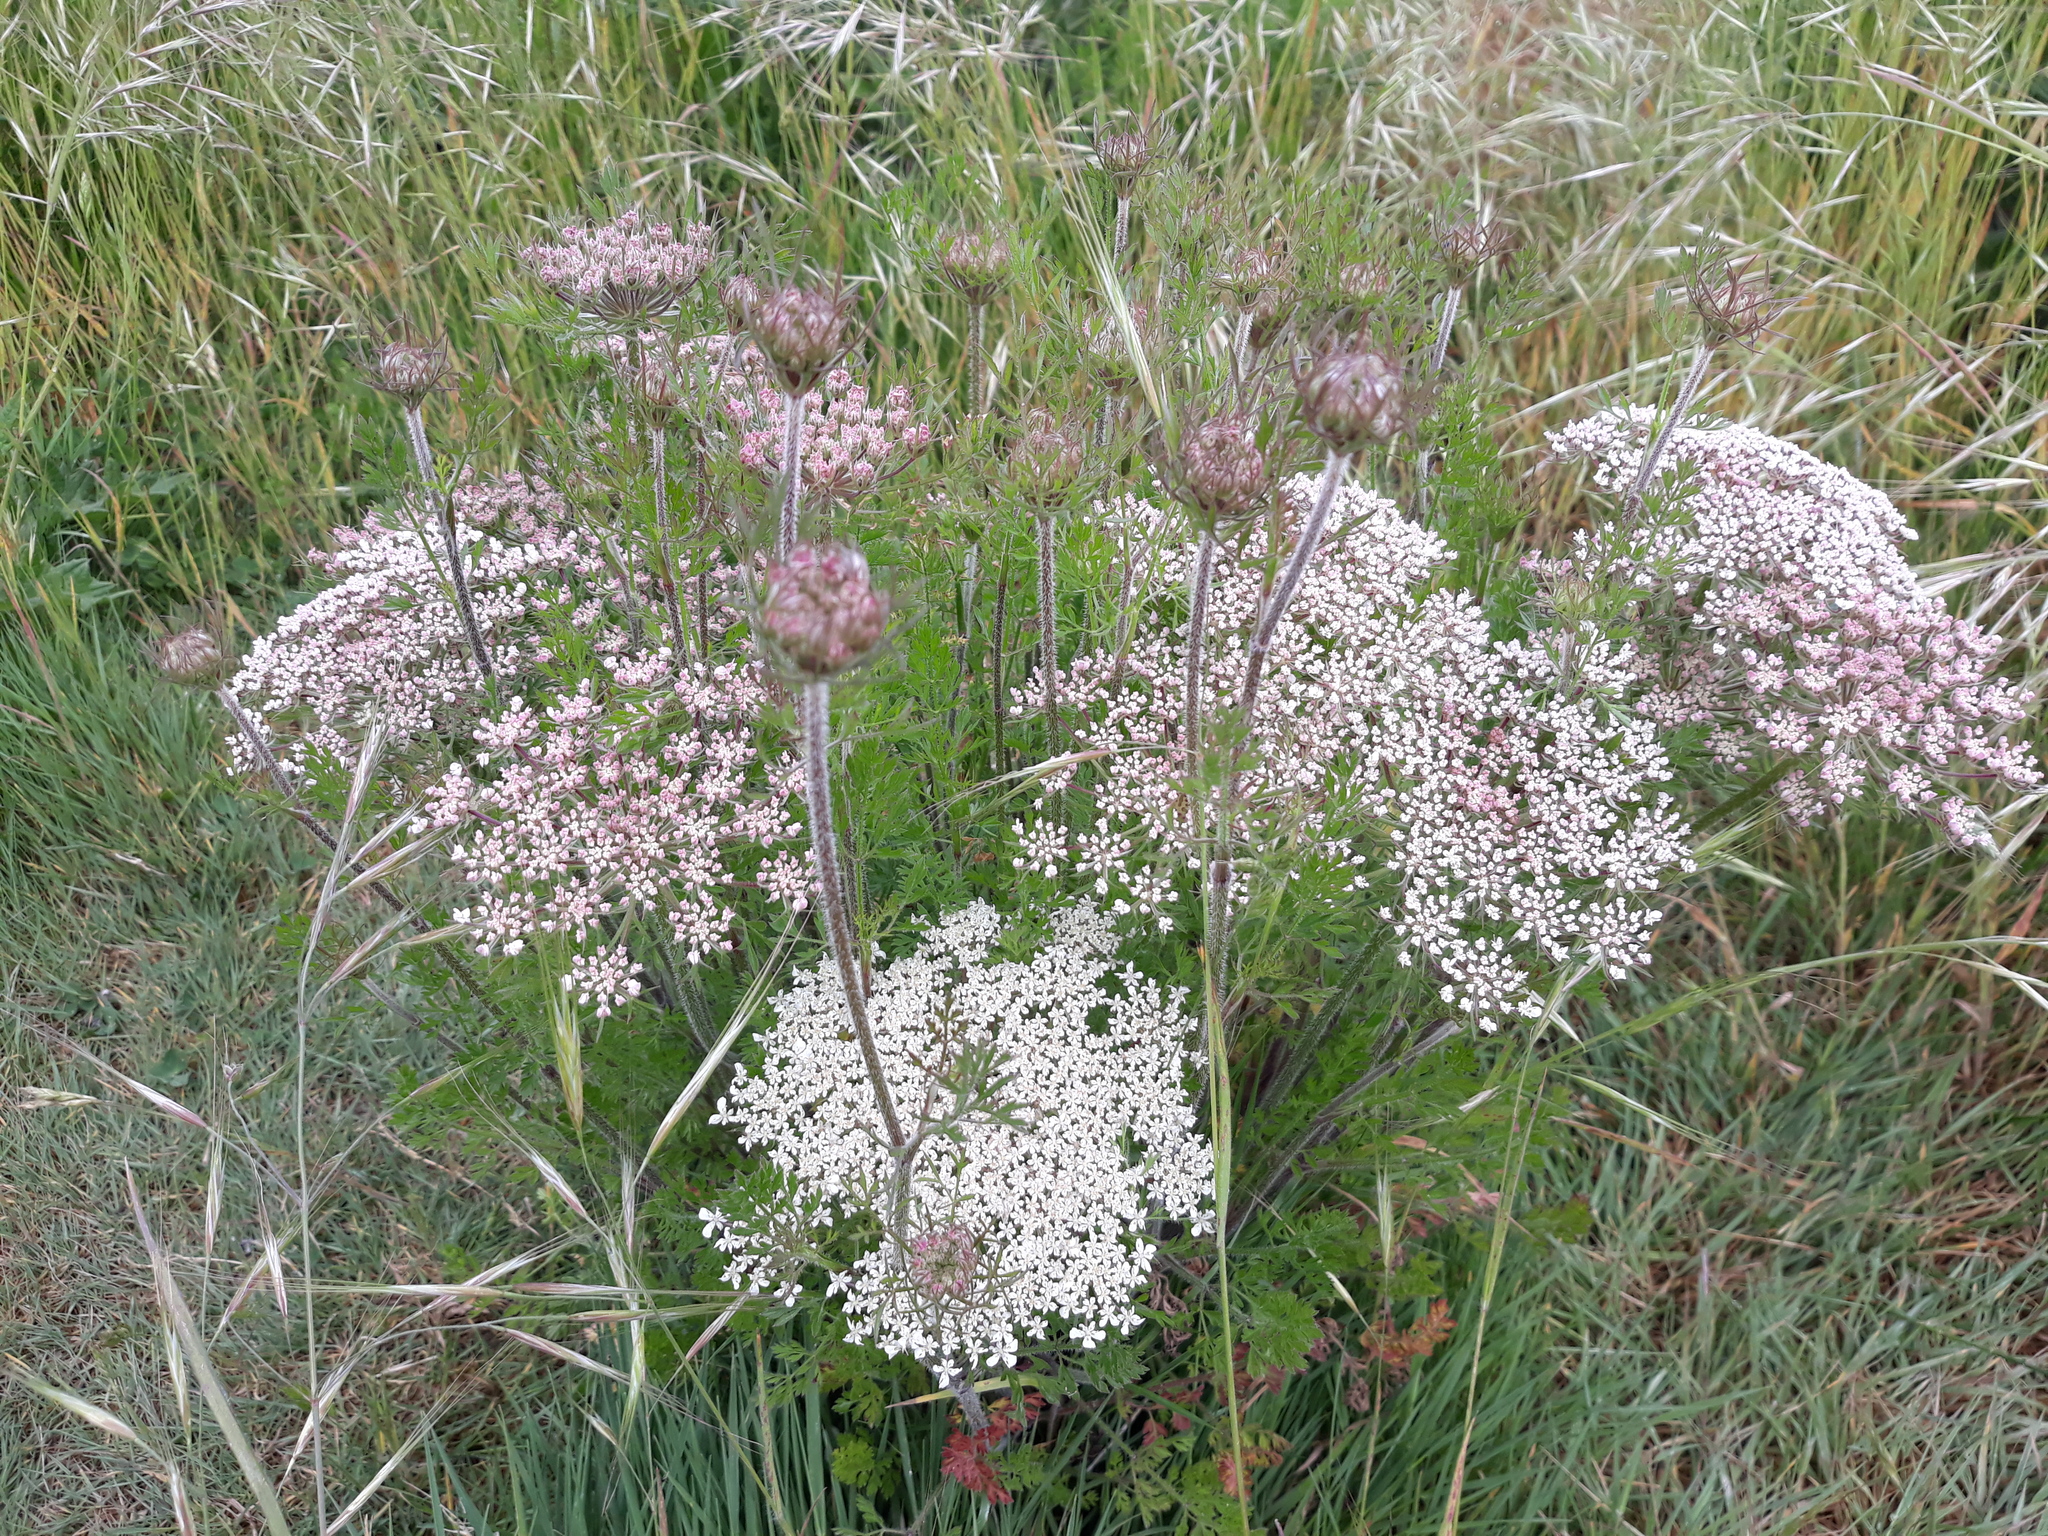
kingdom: Plantae
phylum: Tracheophyta
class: Magnoliopsida
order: Apiales
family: Apiaceae
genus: Daucus
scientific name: Daucus carota
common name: Wild carrot
